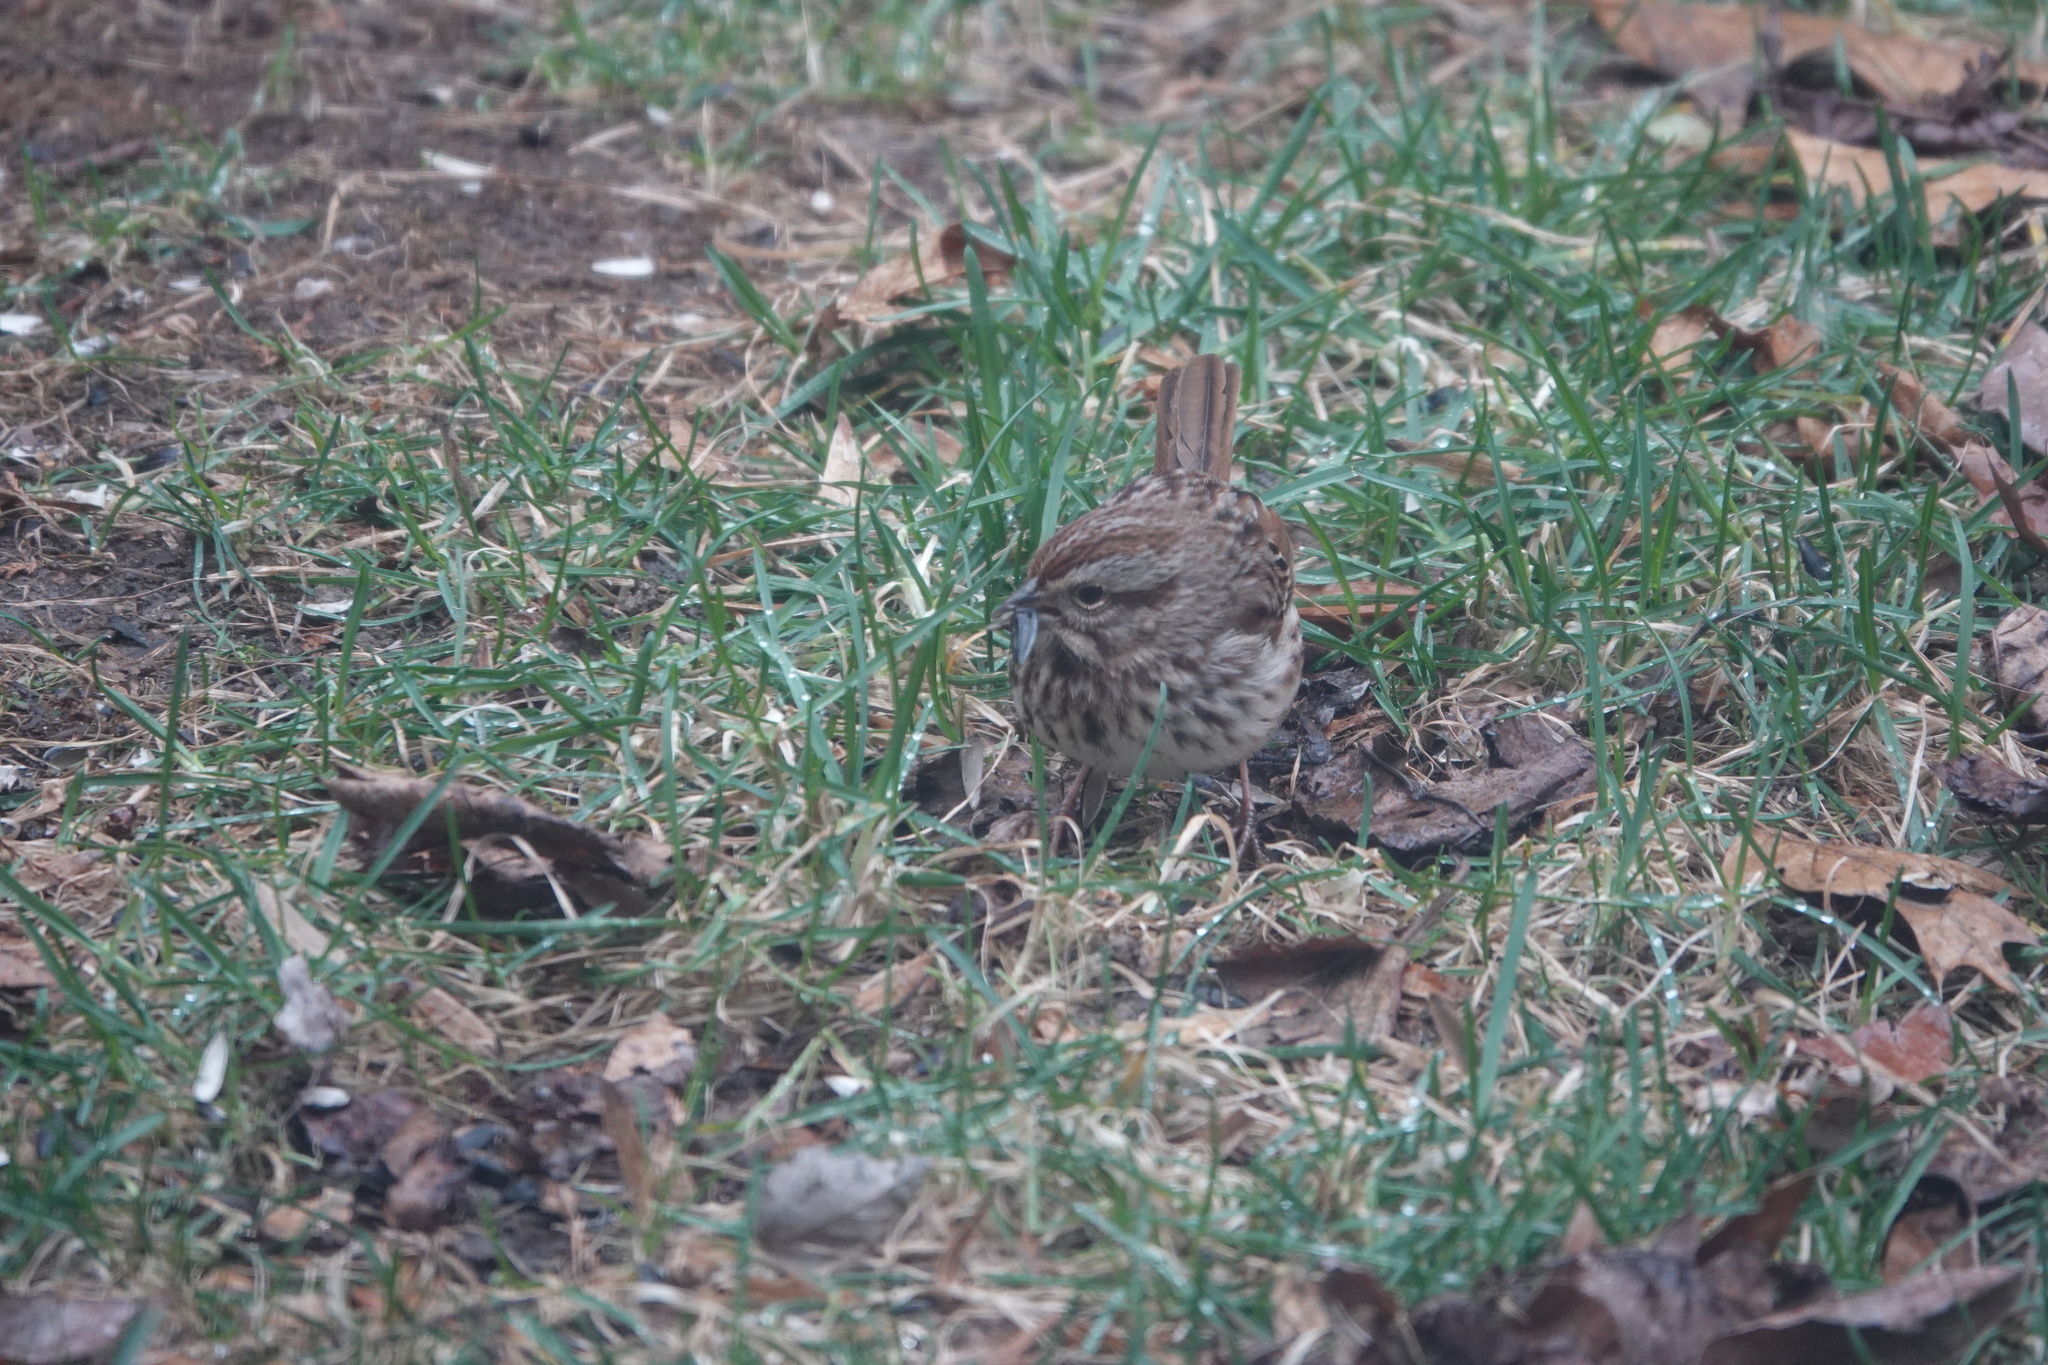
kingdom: Animalia
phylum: Chordata
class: Aves
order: Passeriformes
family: Passerellidae
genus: Melospiza
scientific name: Melospiza melodia
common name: Song sparrow
